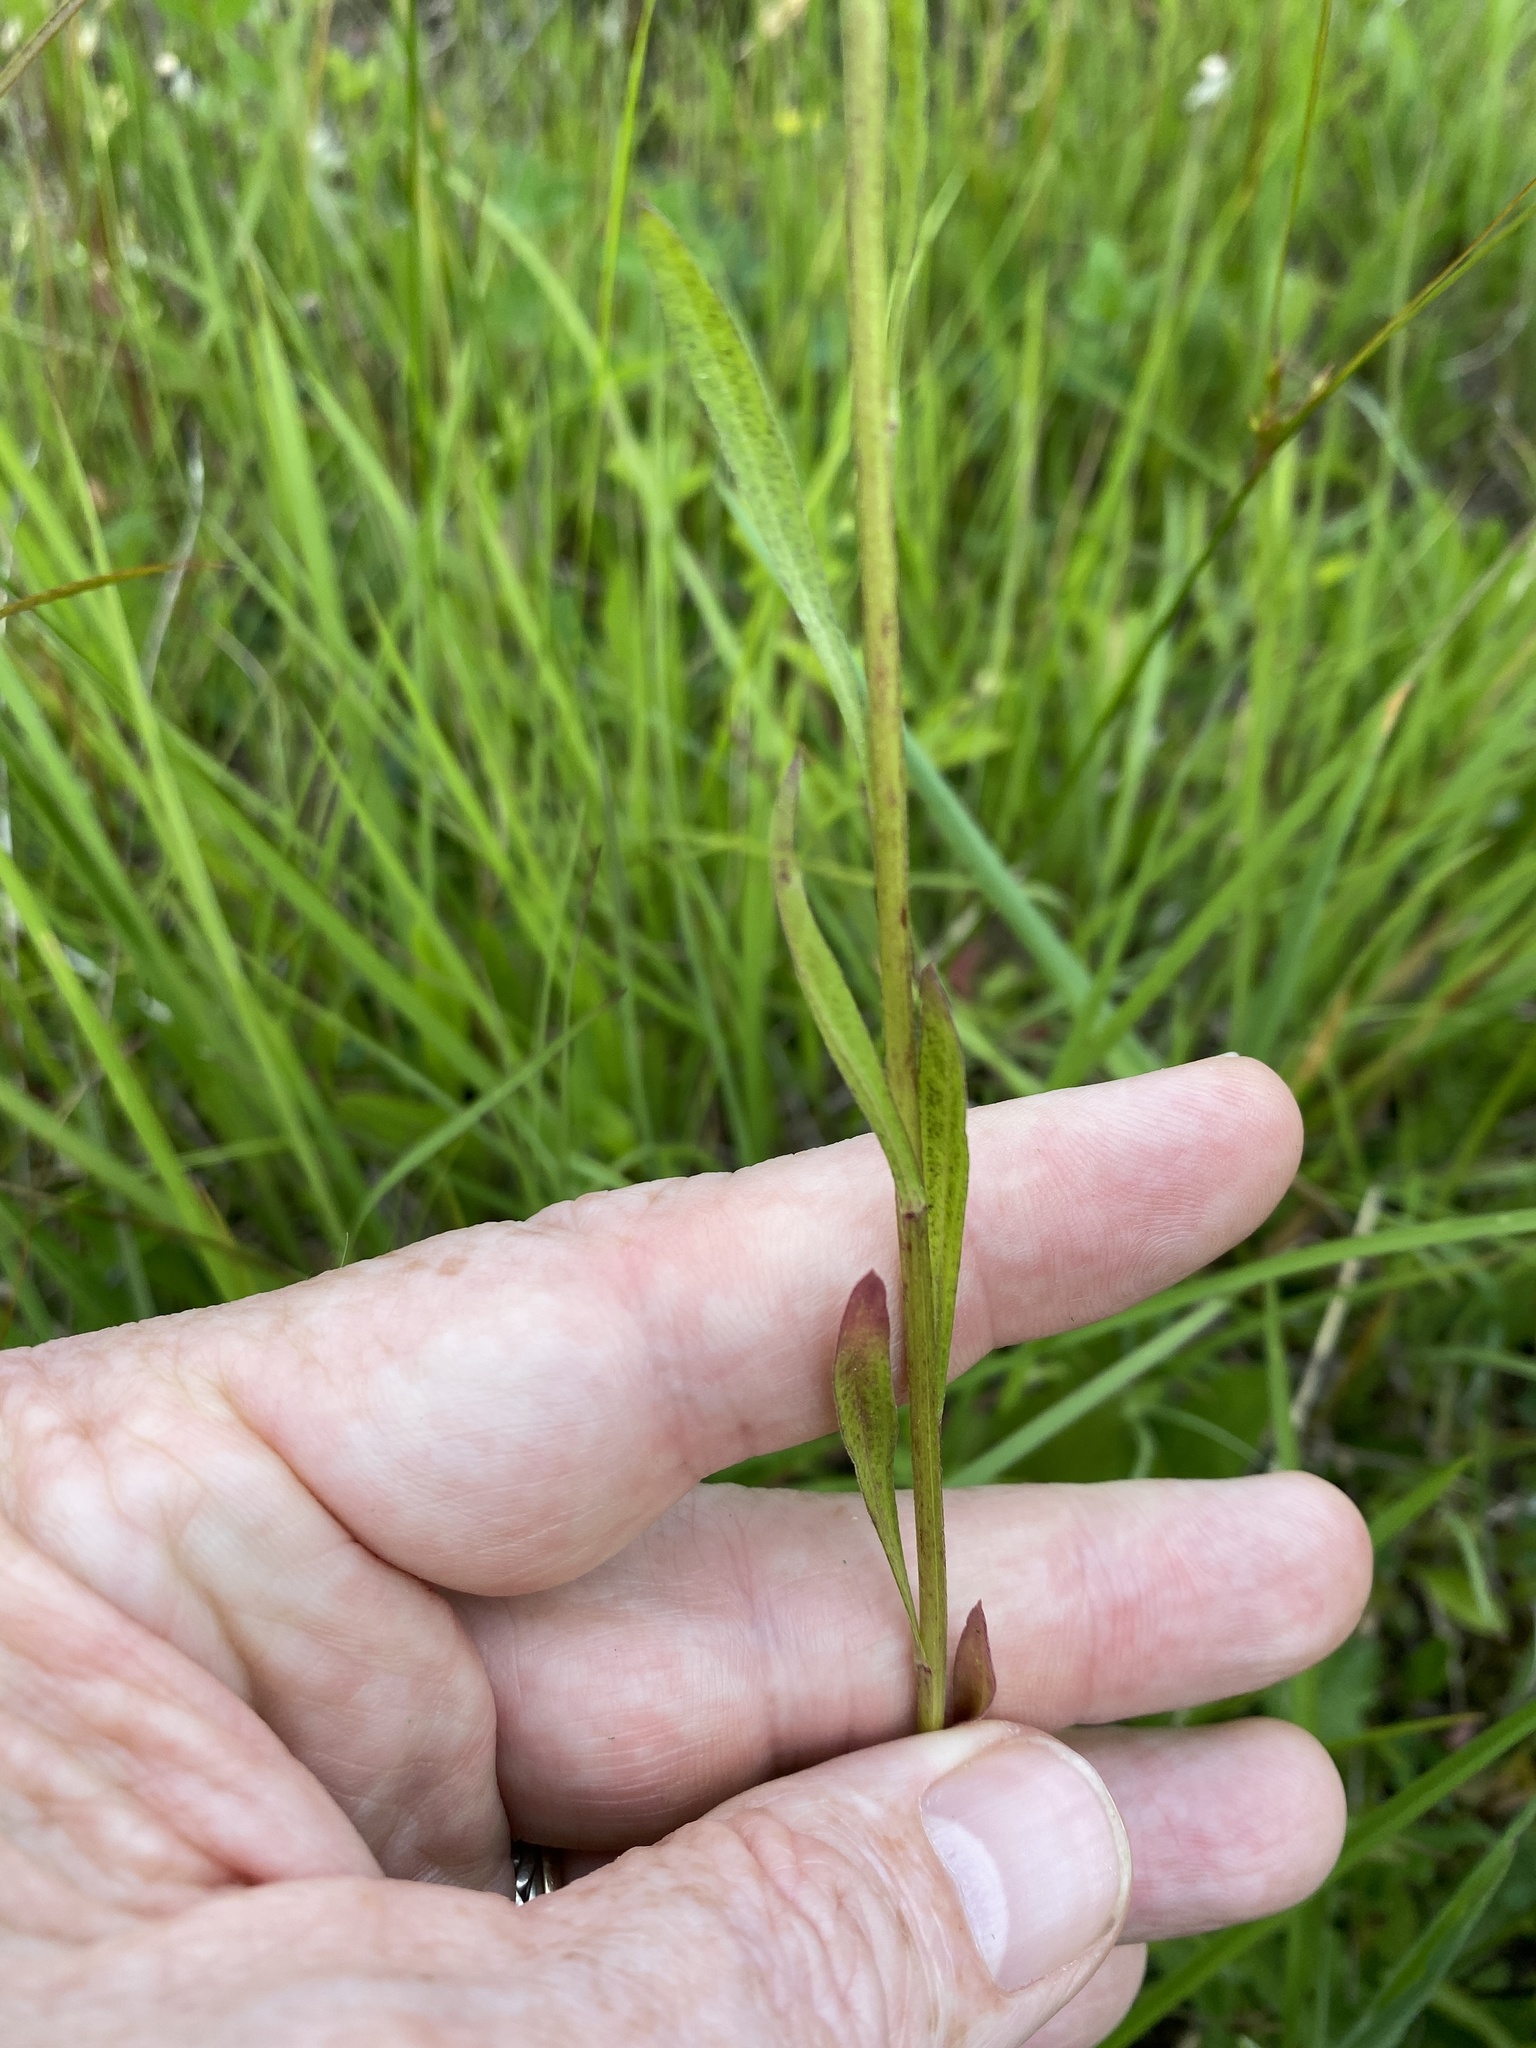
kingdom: Plantae
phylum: Tracheophyta
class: Magnoliopsida
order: Asterales
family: Asteraceae
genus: Erigeron
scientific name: Erigeron strigosus
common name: Common eastern fleabane
